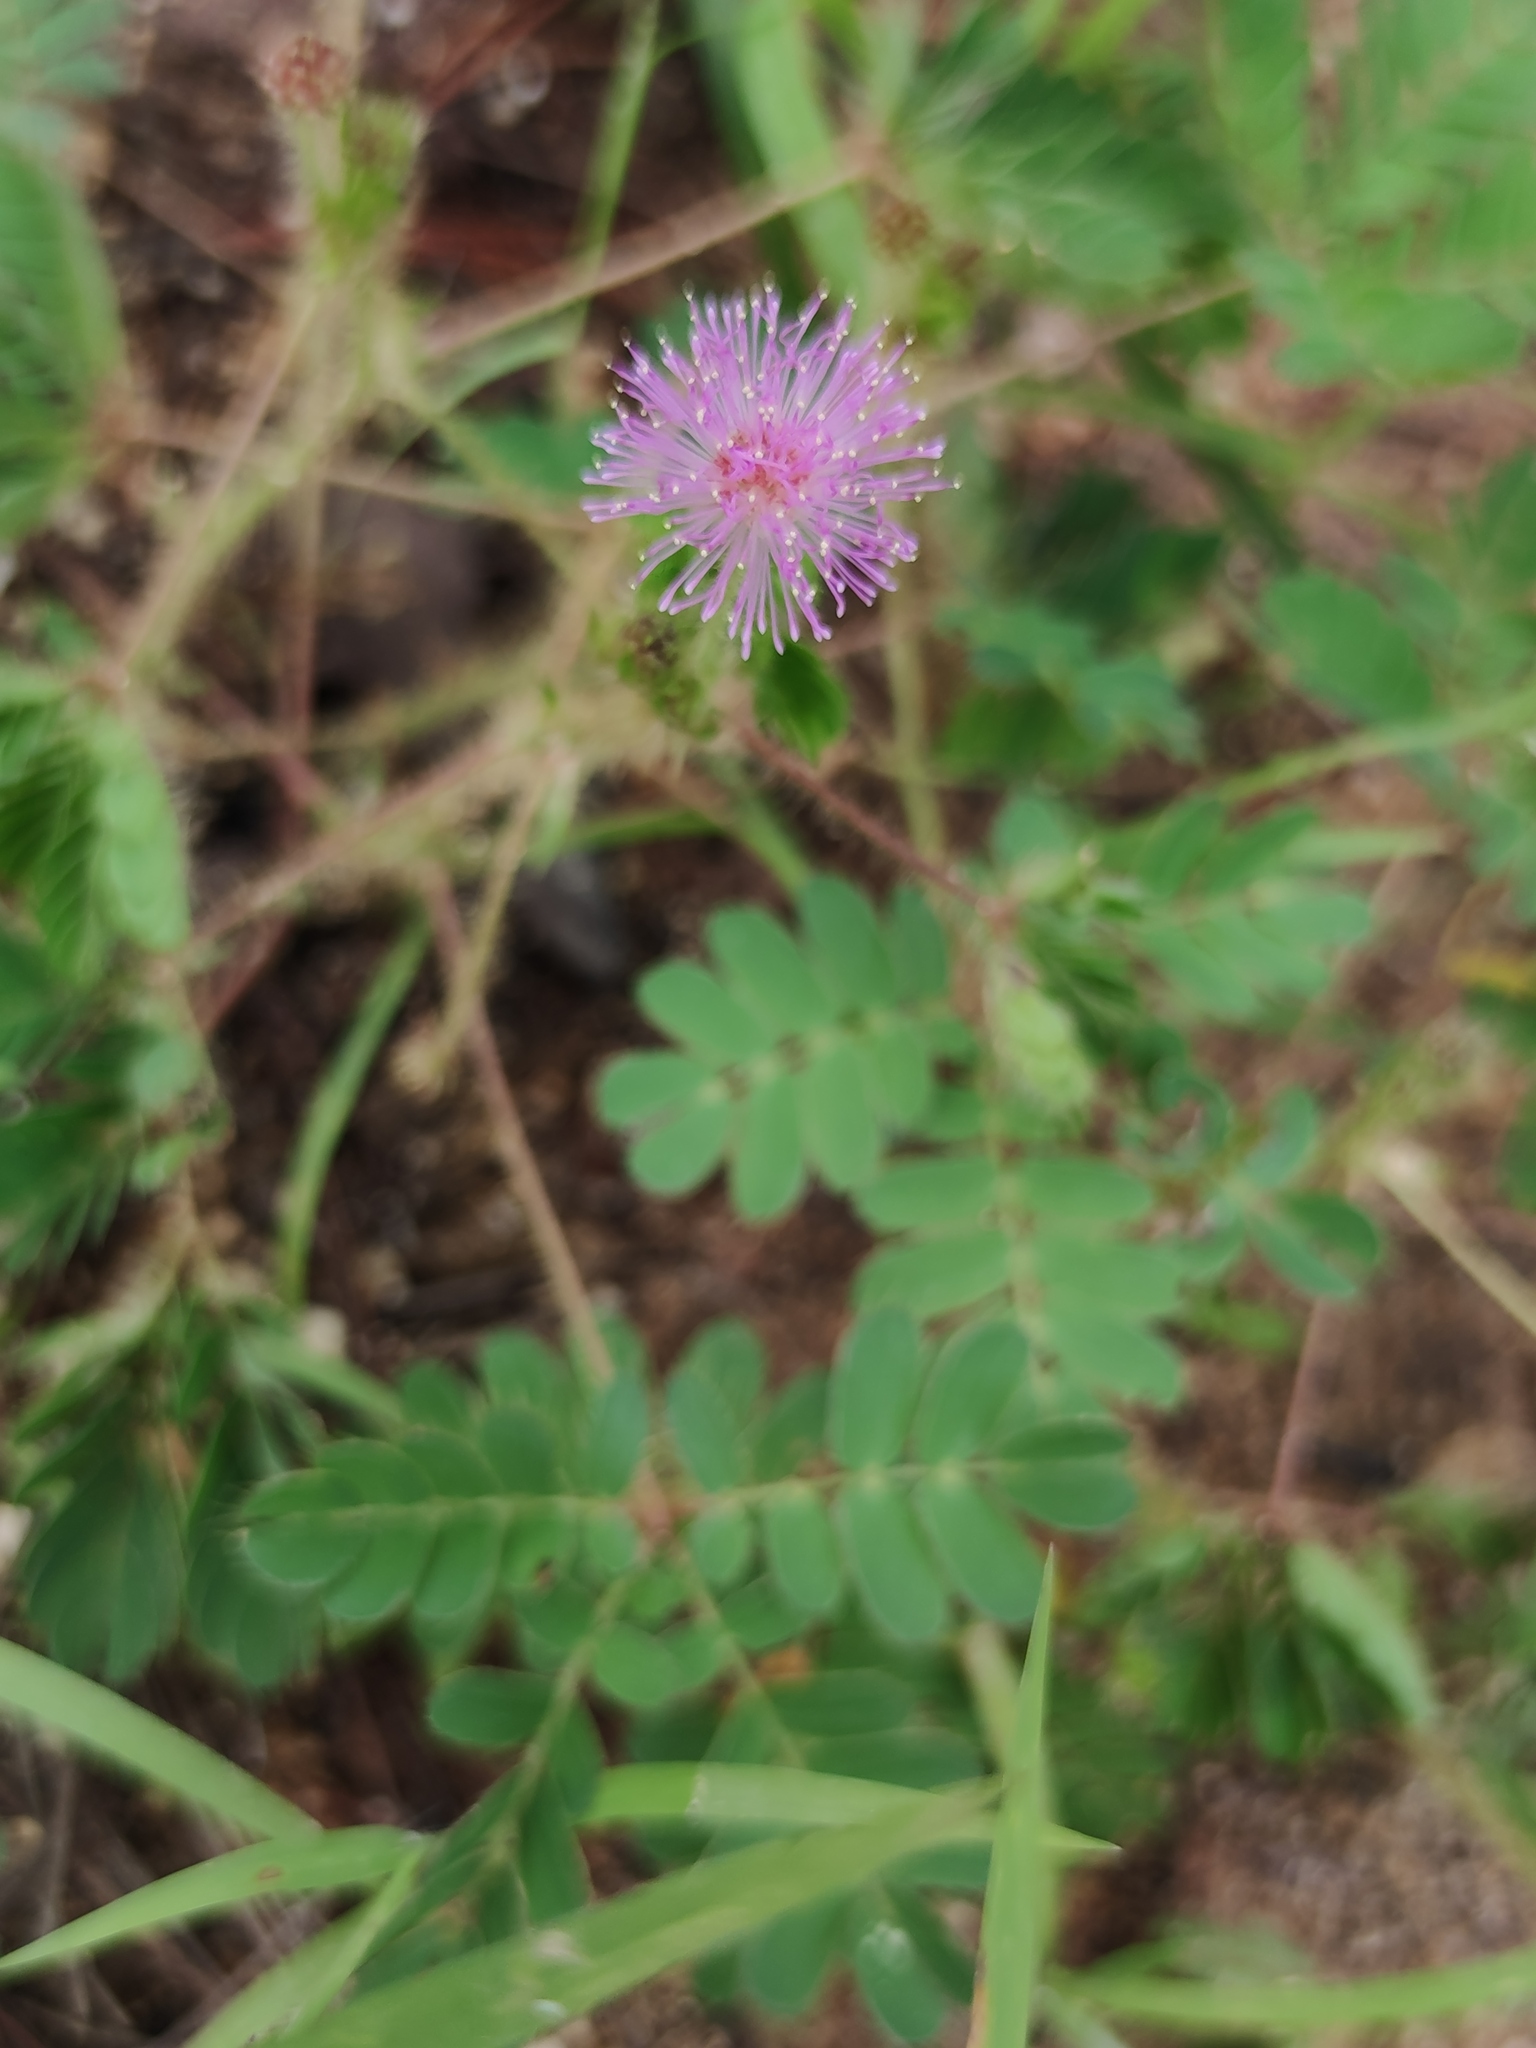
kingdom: Plantae
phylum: Tracheophyta
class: Magnoliopsida
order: Fabales
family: Fabaceae
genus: Mimosa
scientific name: Mimosa pudica
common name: Sensitive plant
